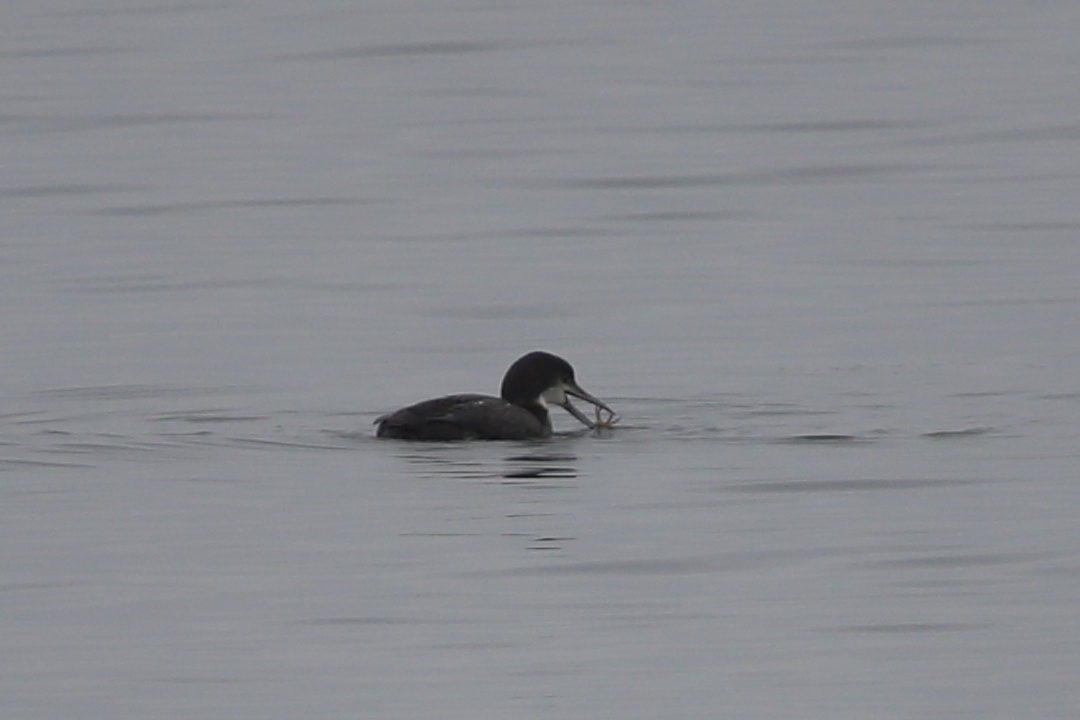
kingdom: Animalia
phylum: Chordata
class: Aves
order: Gaviiformes
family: Gaviidae
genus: Gavia
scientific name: Gavia immer
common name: Common loon
